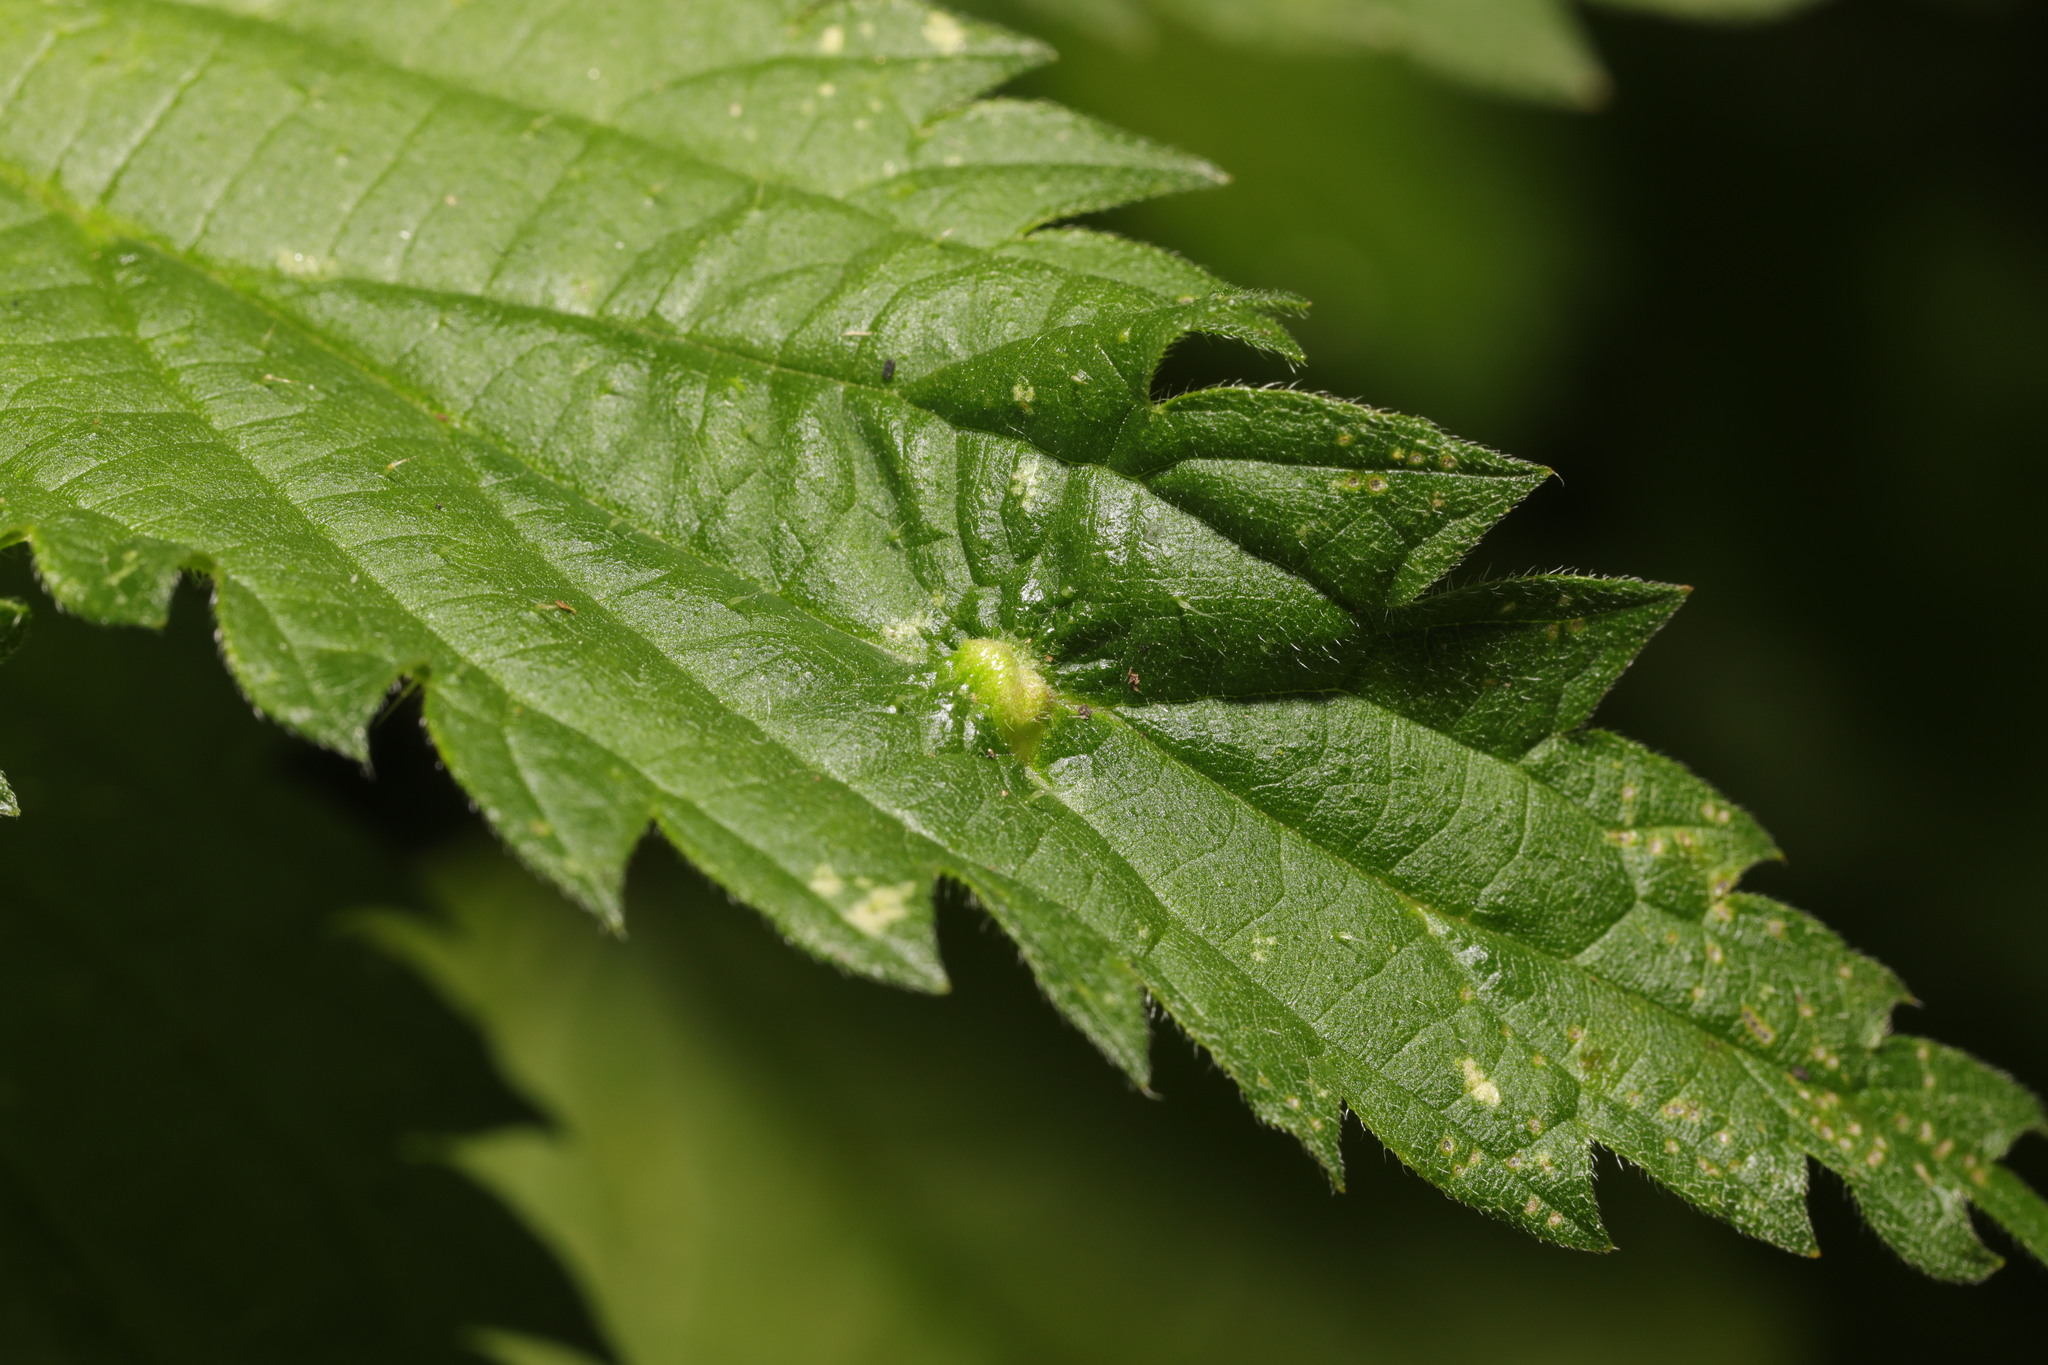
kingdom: Animalia
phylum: Arthropoda
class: Insecta
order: Diptera
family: Cecidomyiidae
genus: Dasineura
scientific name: Dasineura urticae
